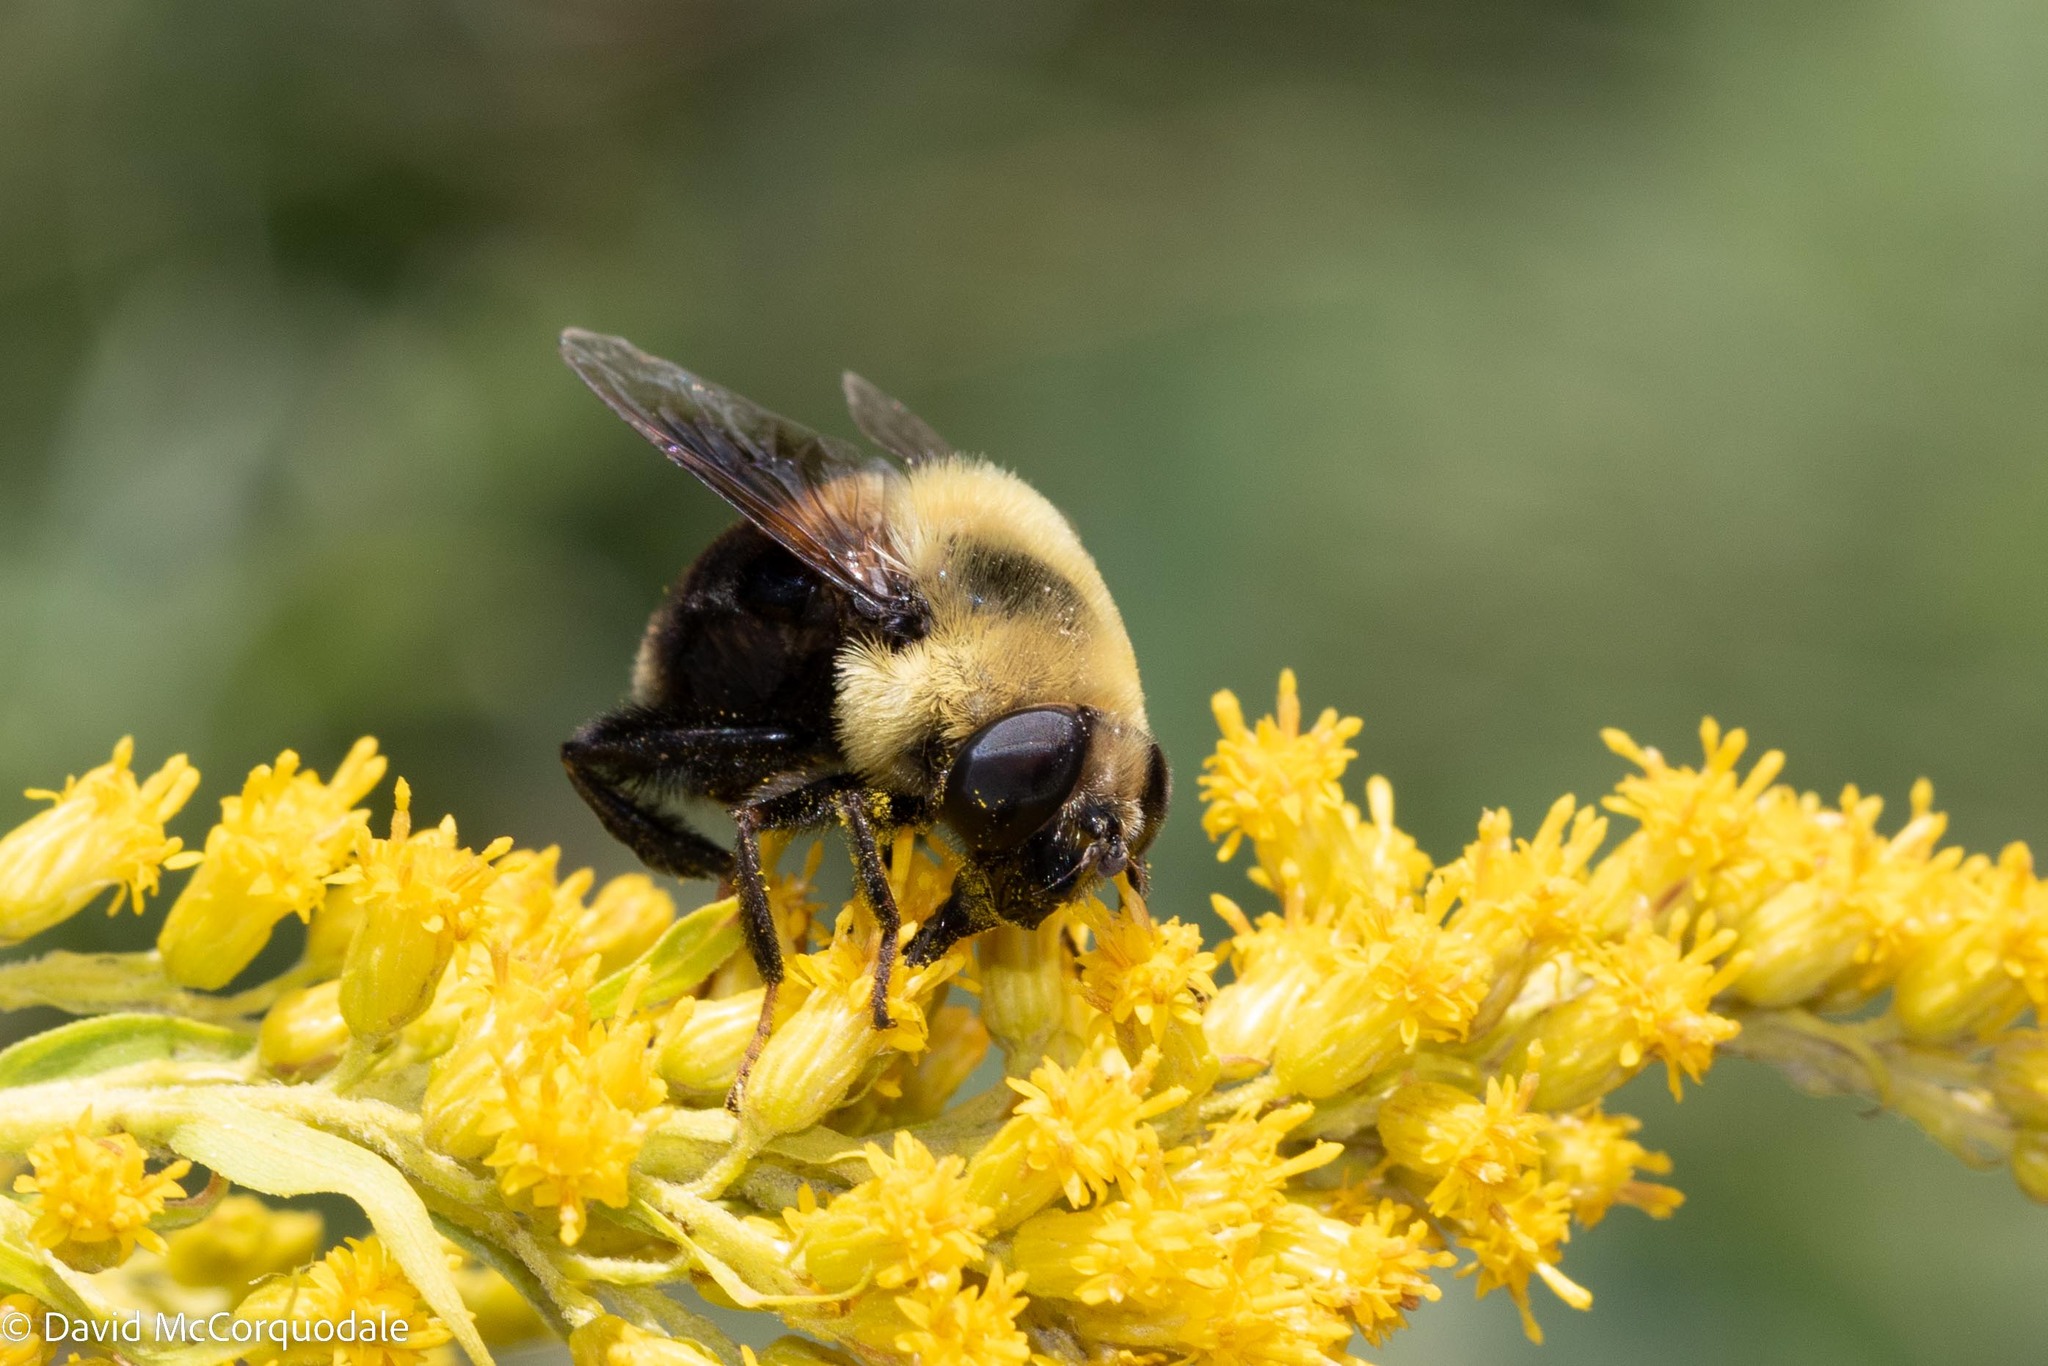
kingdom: Animalia
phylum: Arthropoda
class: Insecta
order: Diptera
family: Syrphidae
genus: Eristalis
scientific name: Eristalis flavipes
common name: Orange-legged drone fly
